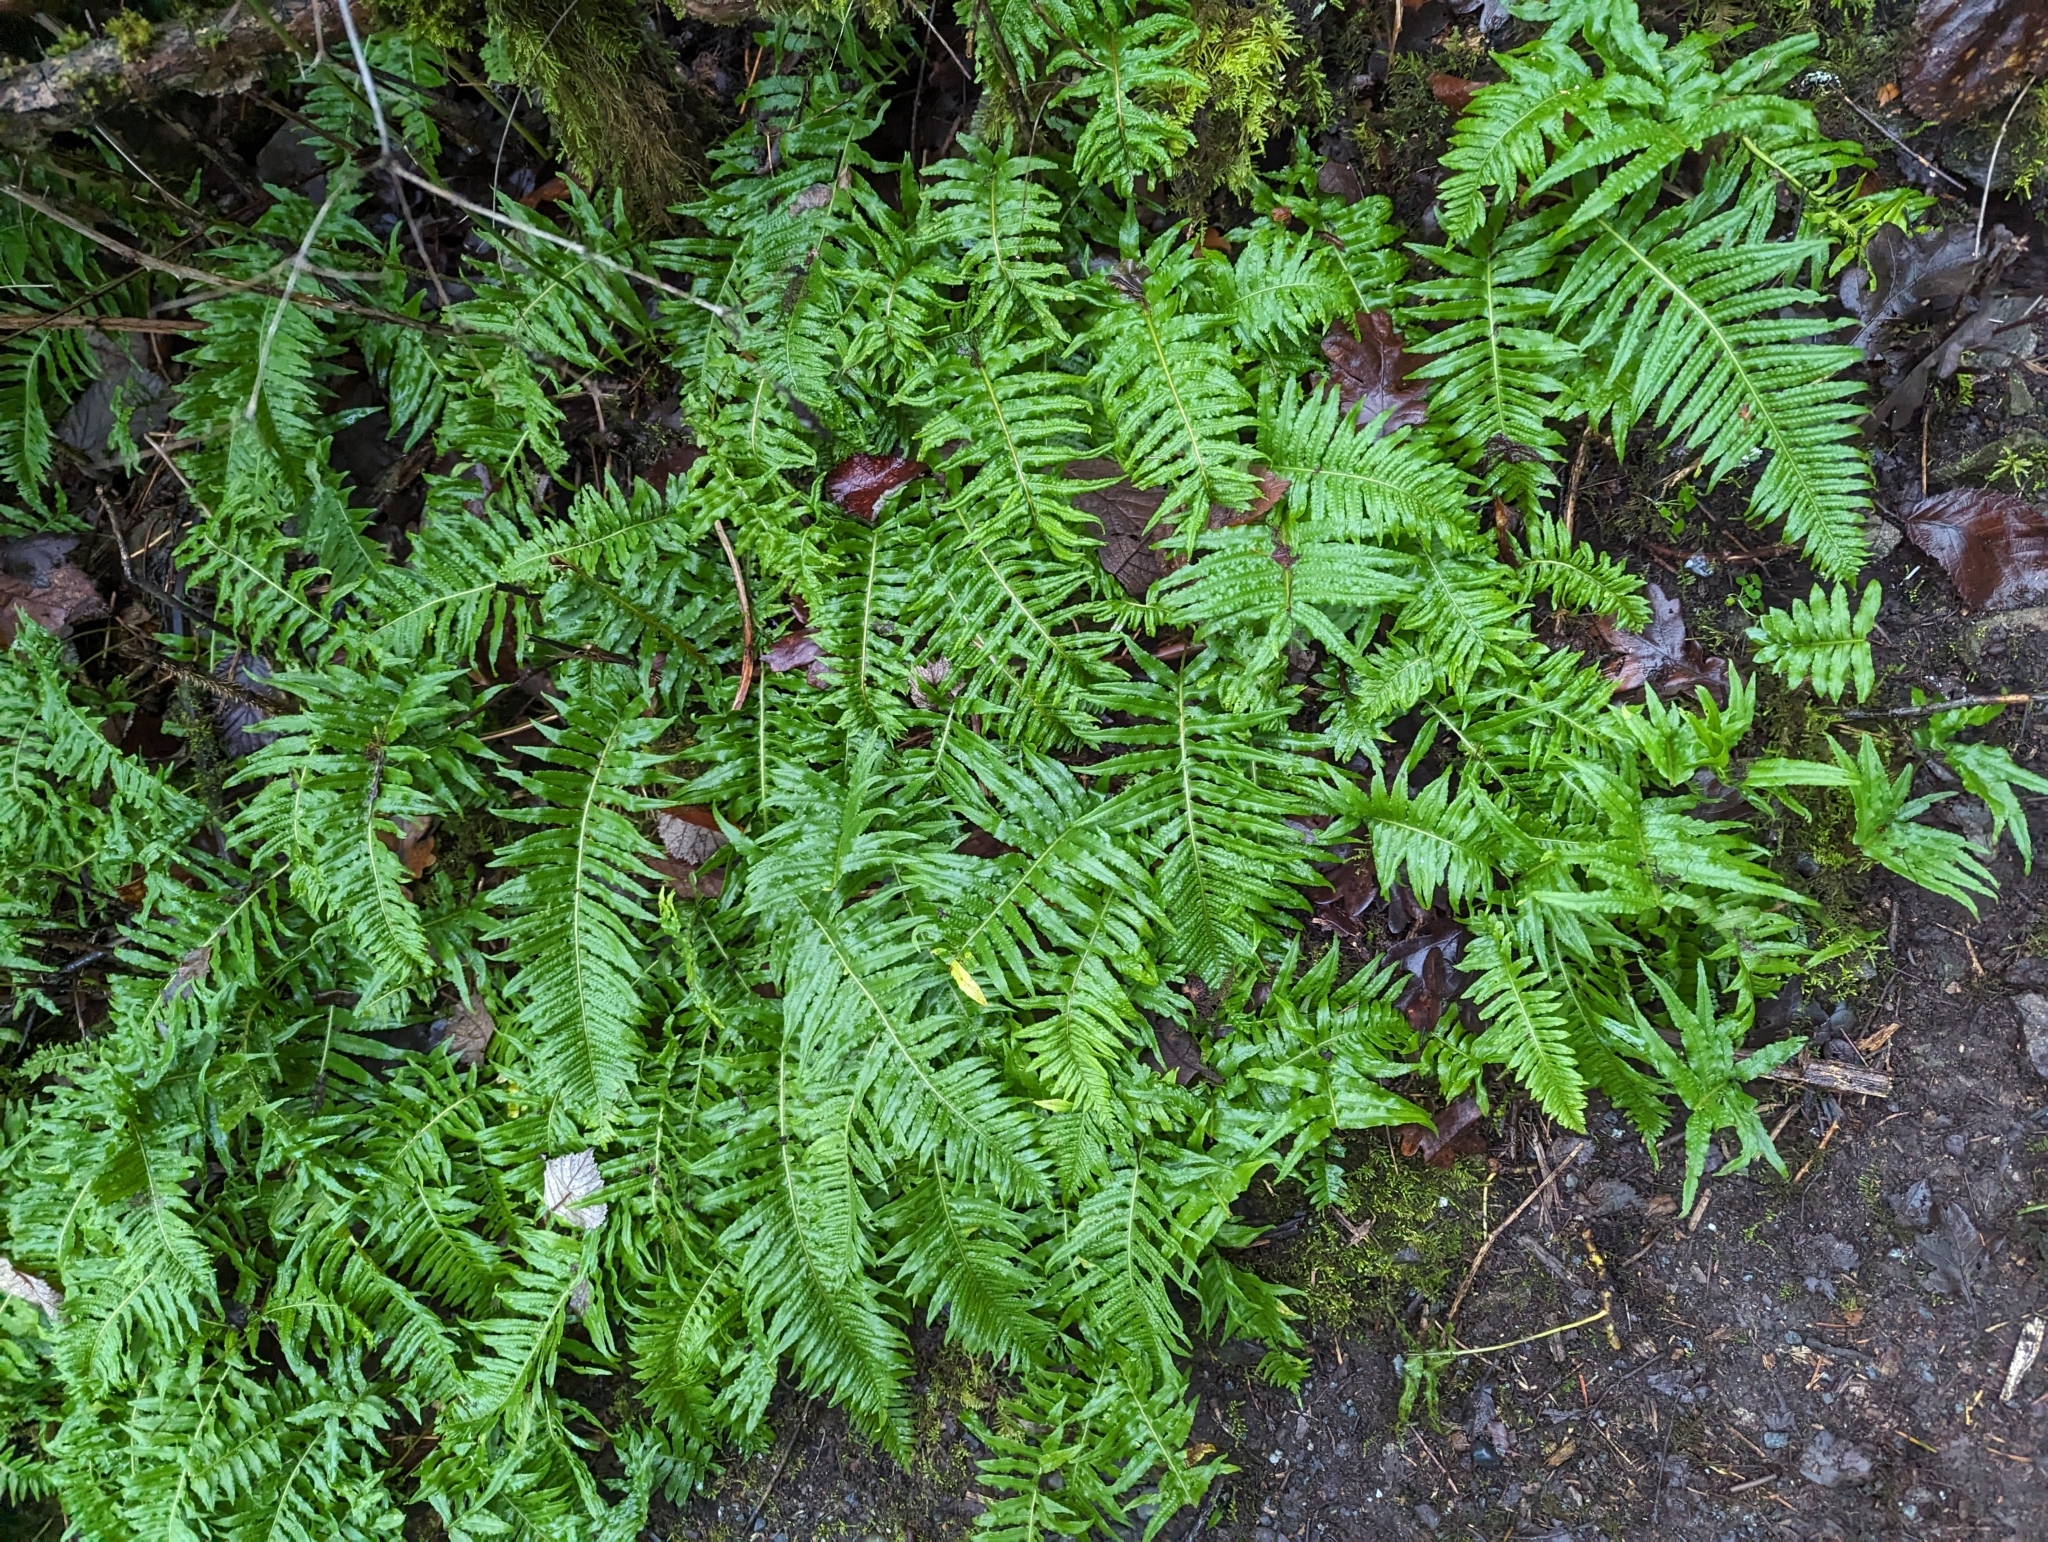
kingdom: Plantae
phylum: Tracheophyta
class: Polypodiopsida
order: Polypodiales
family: Polypodiaceae
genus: Polypodium
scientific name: Polypodium glycyrrhiza
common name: Licorice fern
